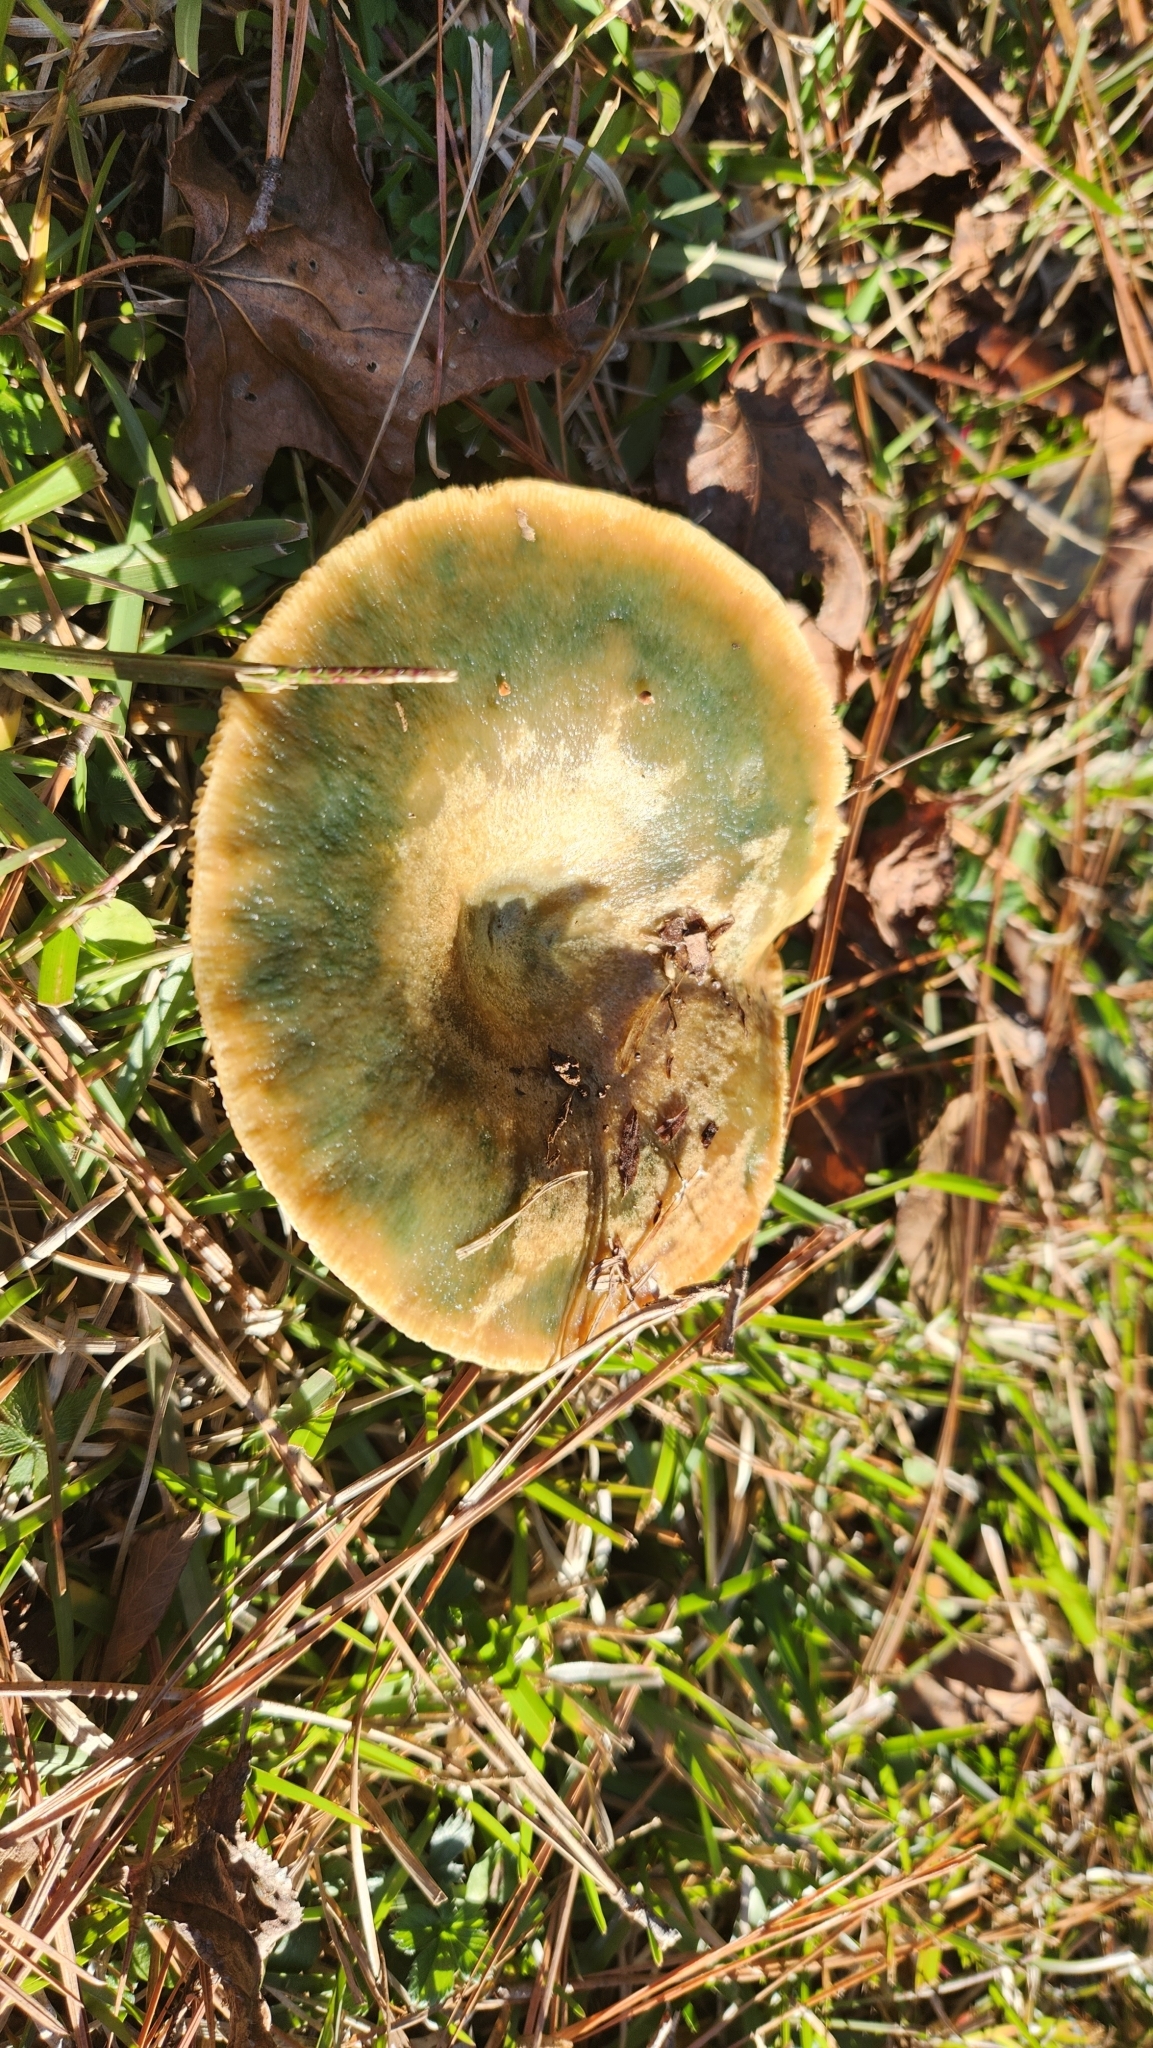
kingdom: Fungi
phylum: Basidiomycota
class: Agaricomycetes
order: Russulales
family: Russulaceae
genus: Lactarius
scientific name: Lactarius paradoxus
